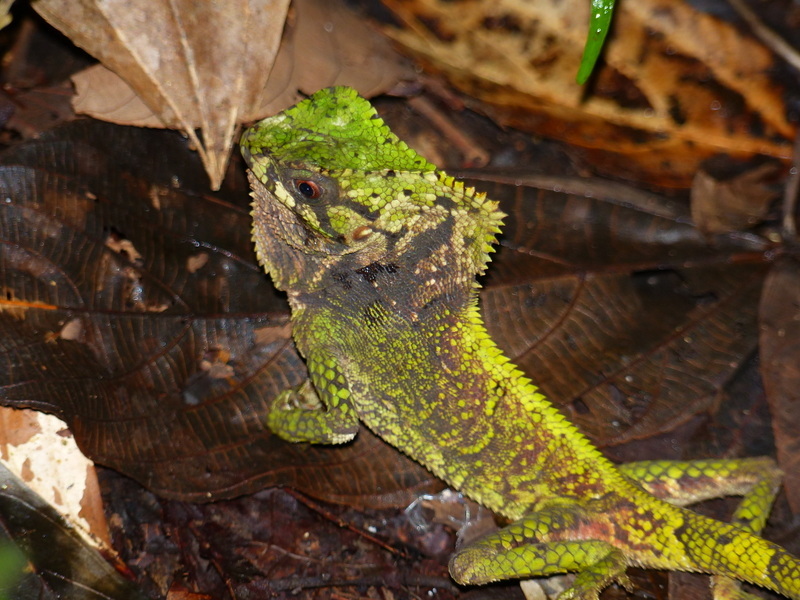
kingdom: Animalia
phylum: Chordata
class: Squamata
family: Corytophanidae
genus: Corytophanes
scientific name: Corytophanes cristatus
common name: Smooth helmeted iguana
